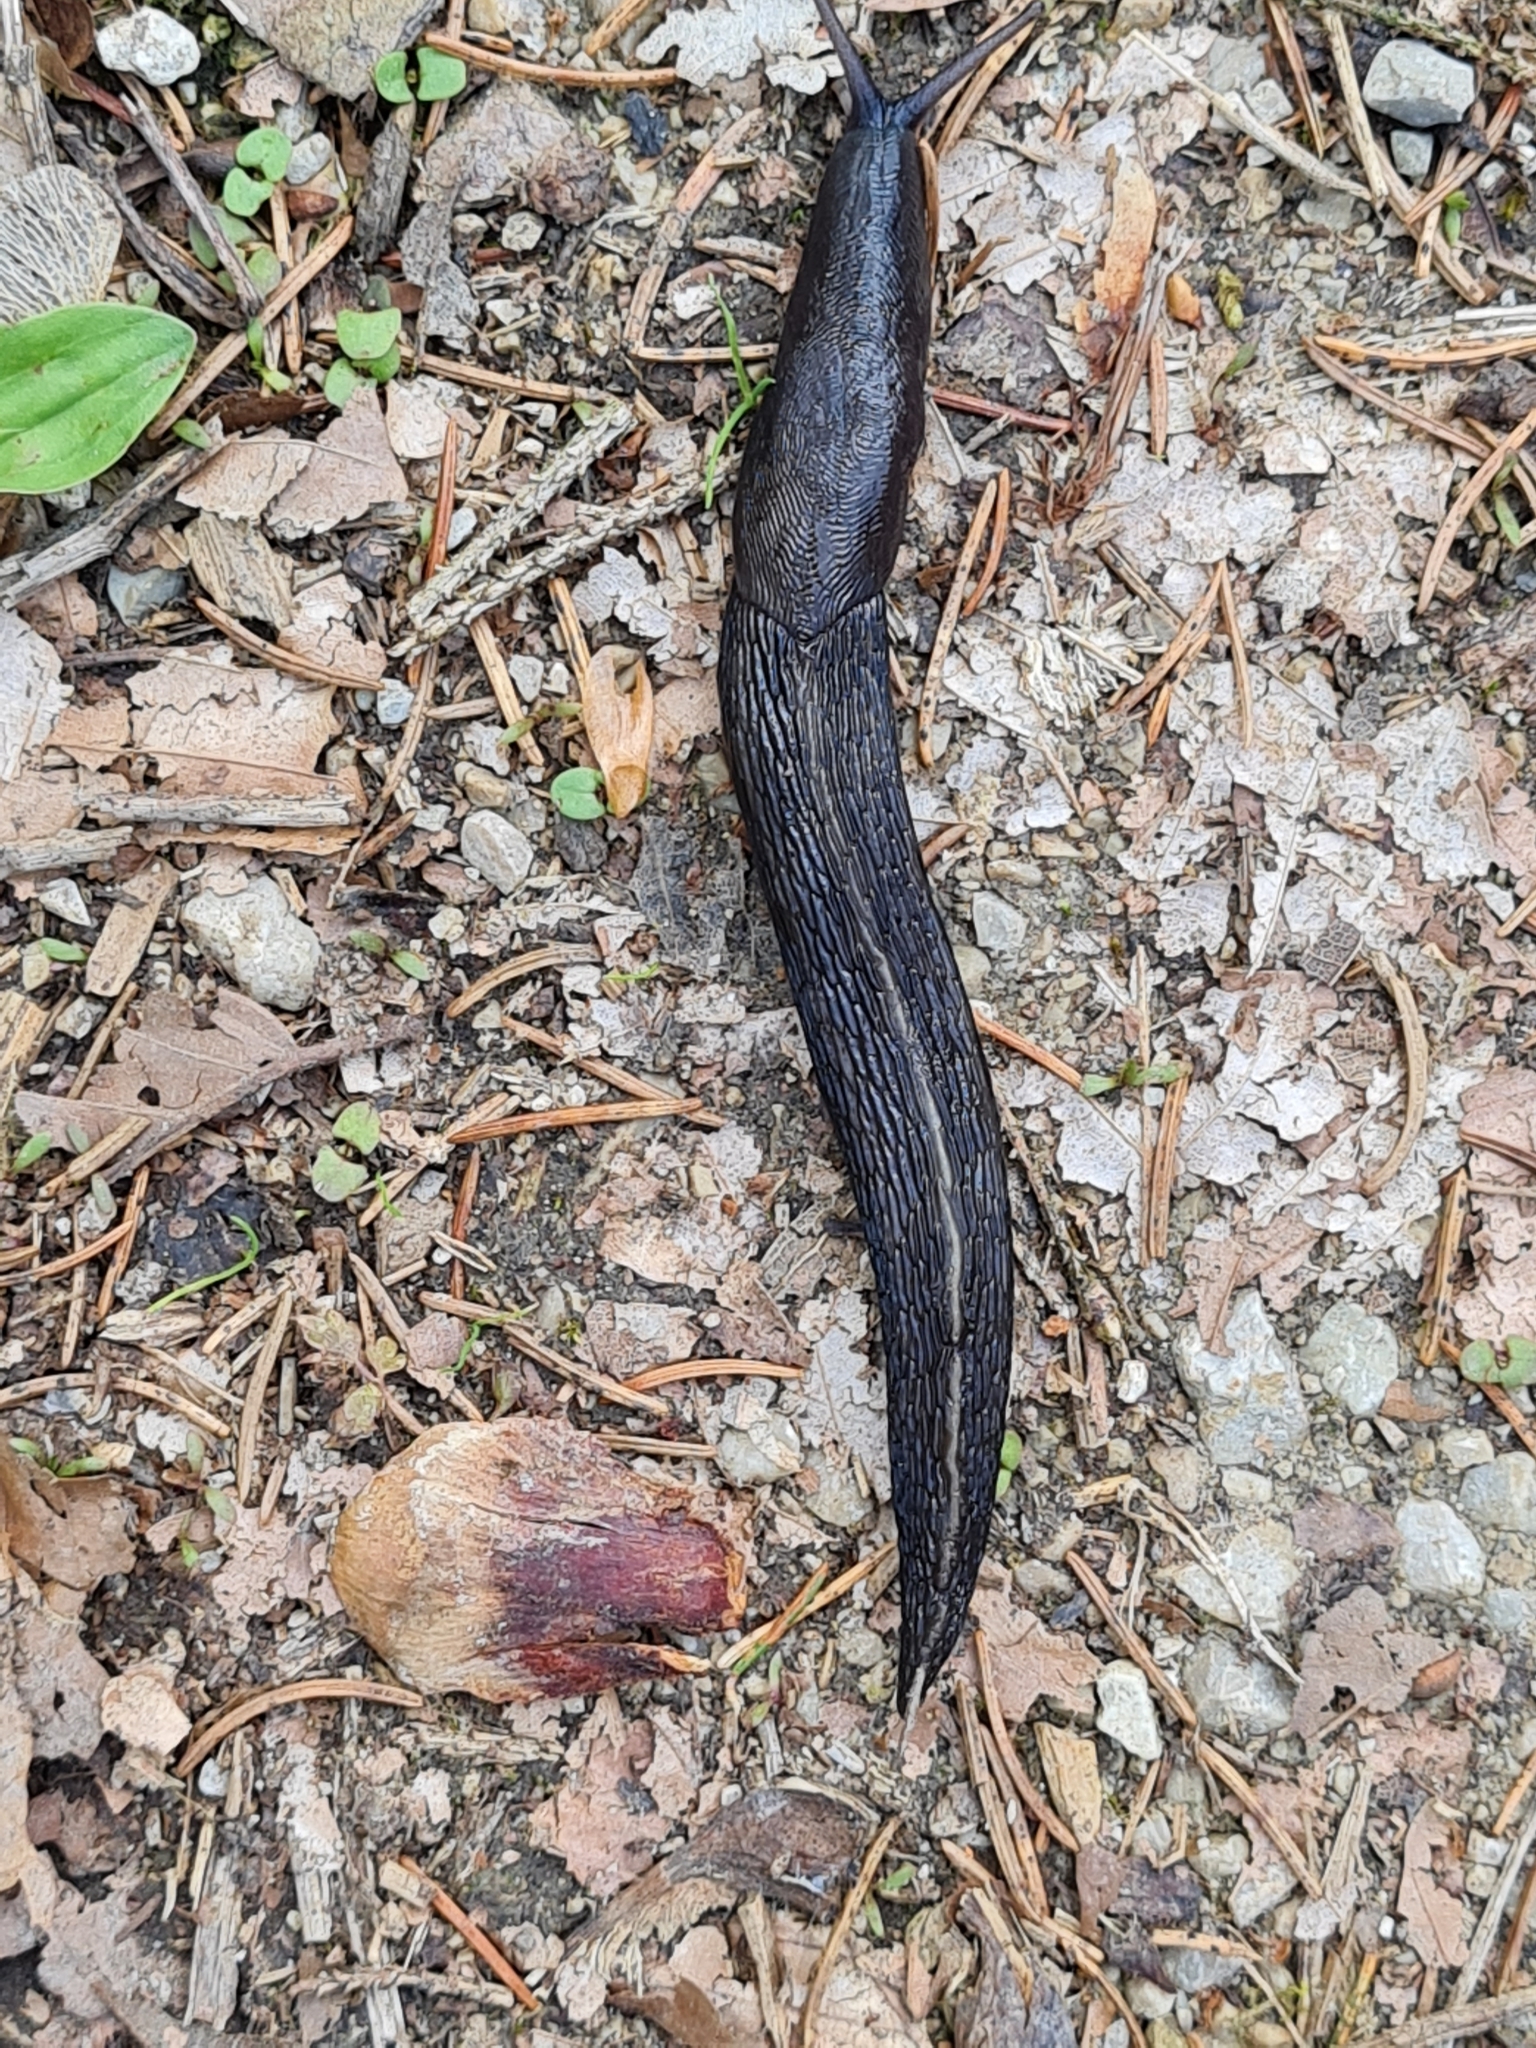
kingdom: Animalia
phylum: Mollusca
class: Gastropoda
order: Stylommatophora
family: Limacidae
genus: Limax
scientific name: Limax cinereoniger
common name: Ash-black slug
